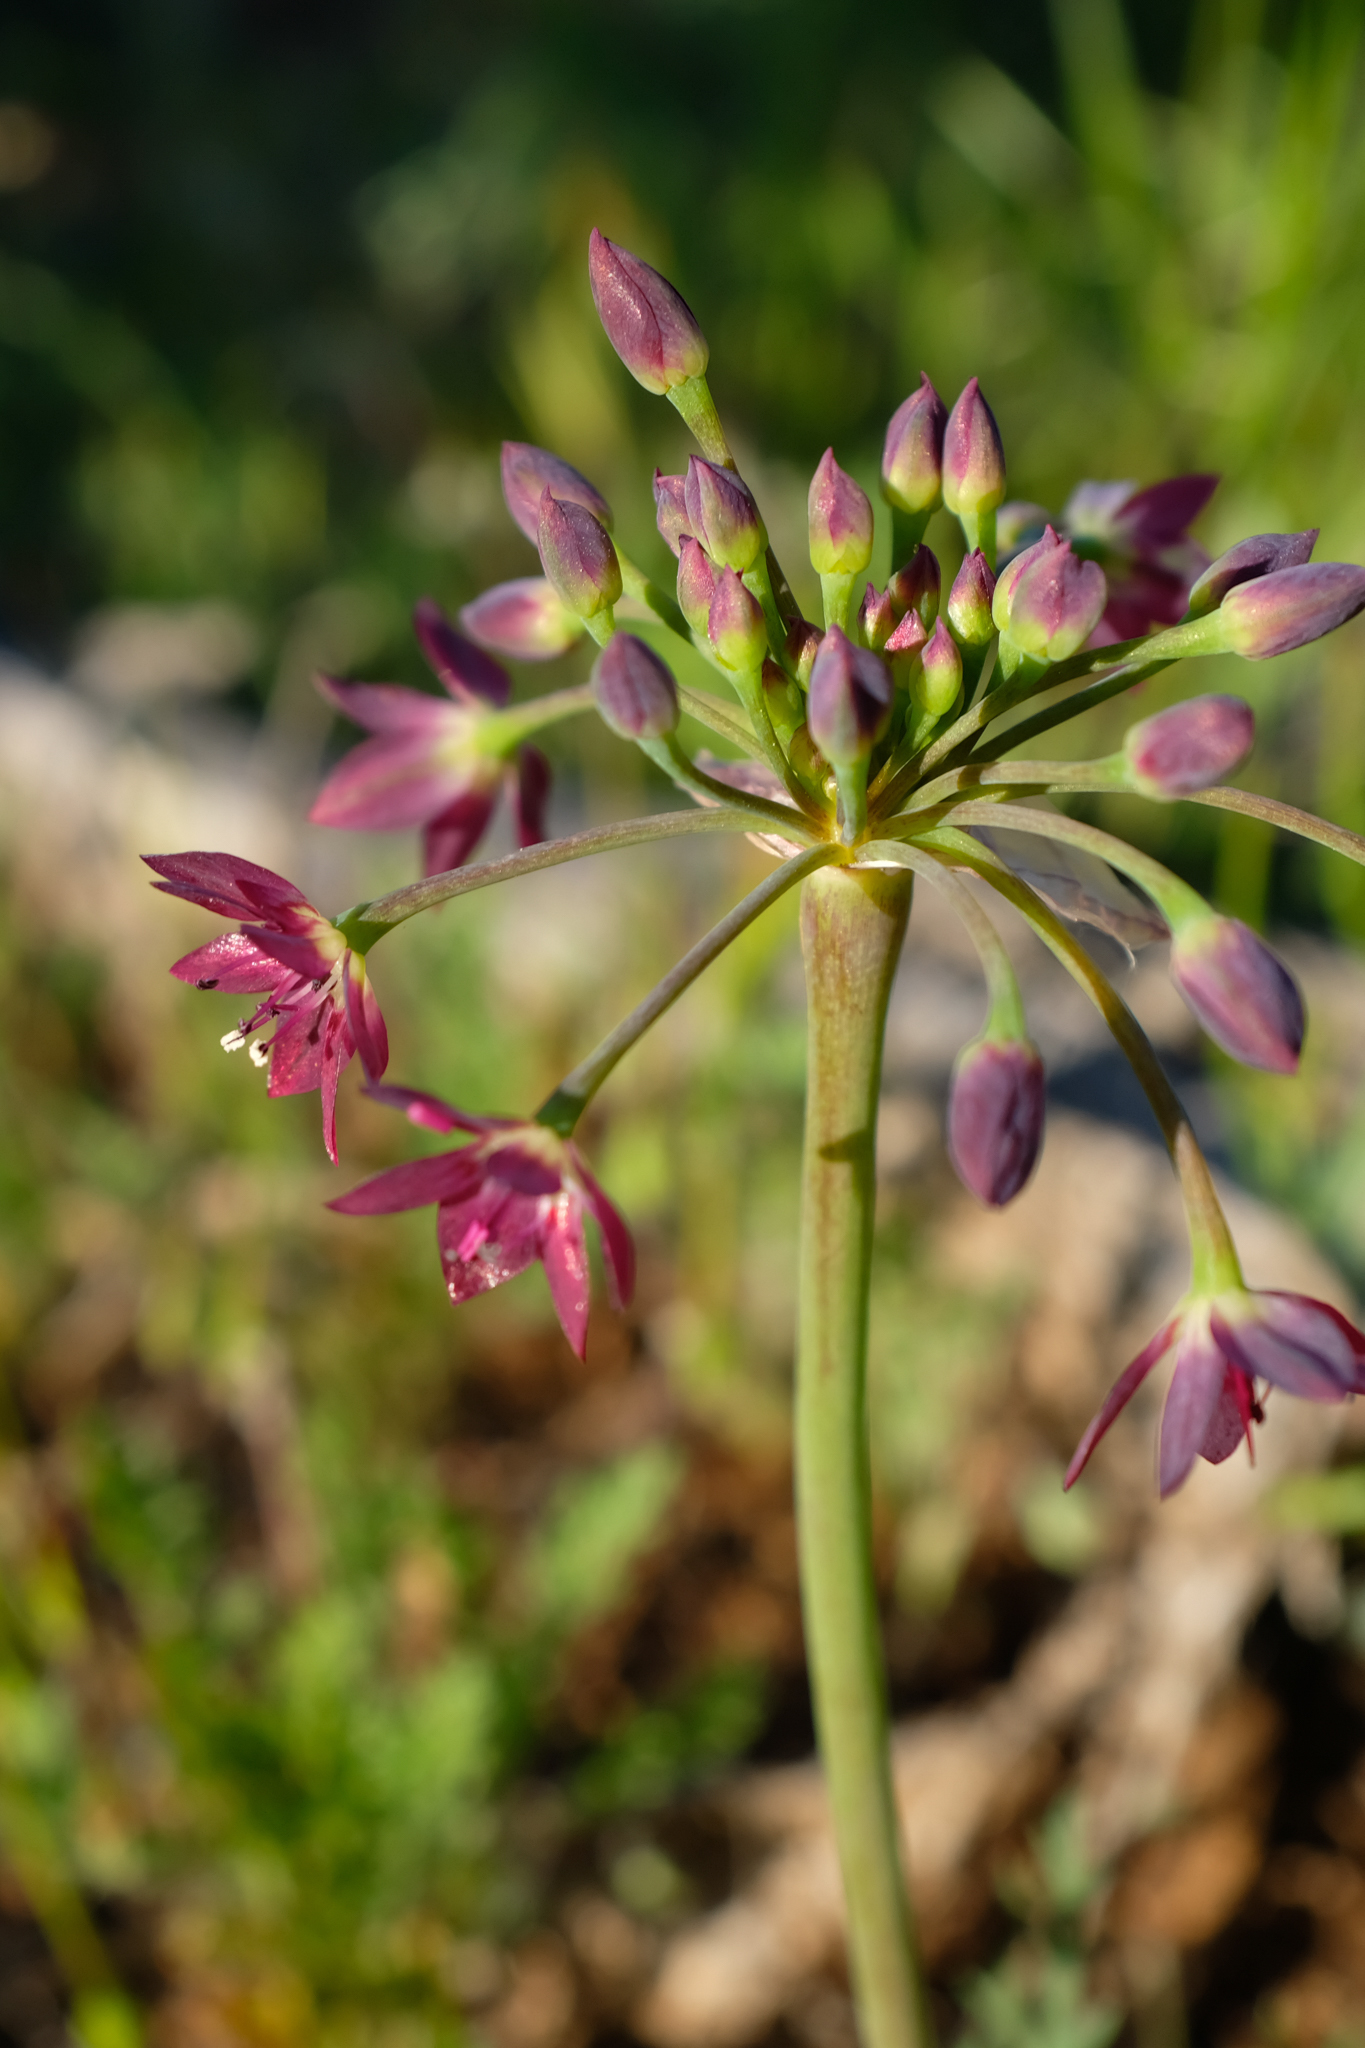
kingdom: Plantae
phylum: Tracheophyta
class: Liliopsida
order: Asparagales
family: Amaryllidaceae
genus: Allium
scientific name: Allium campanulatum
